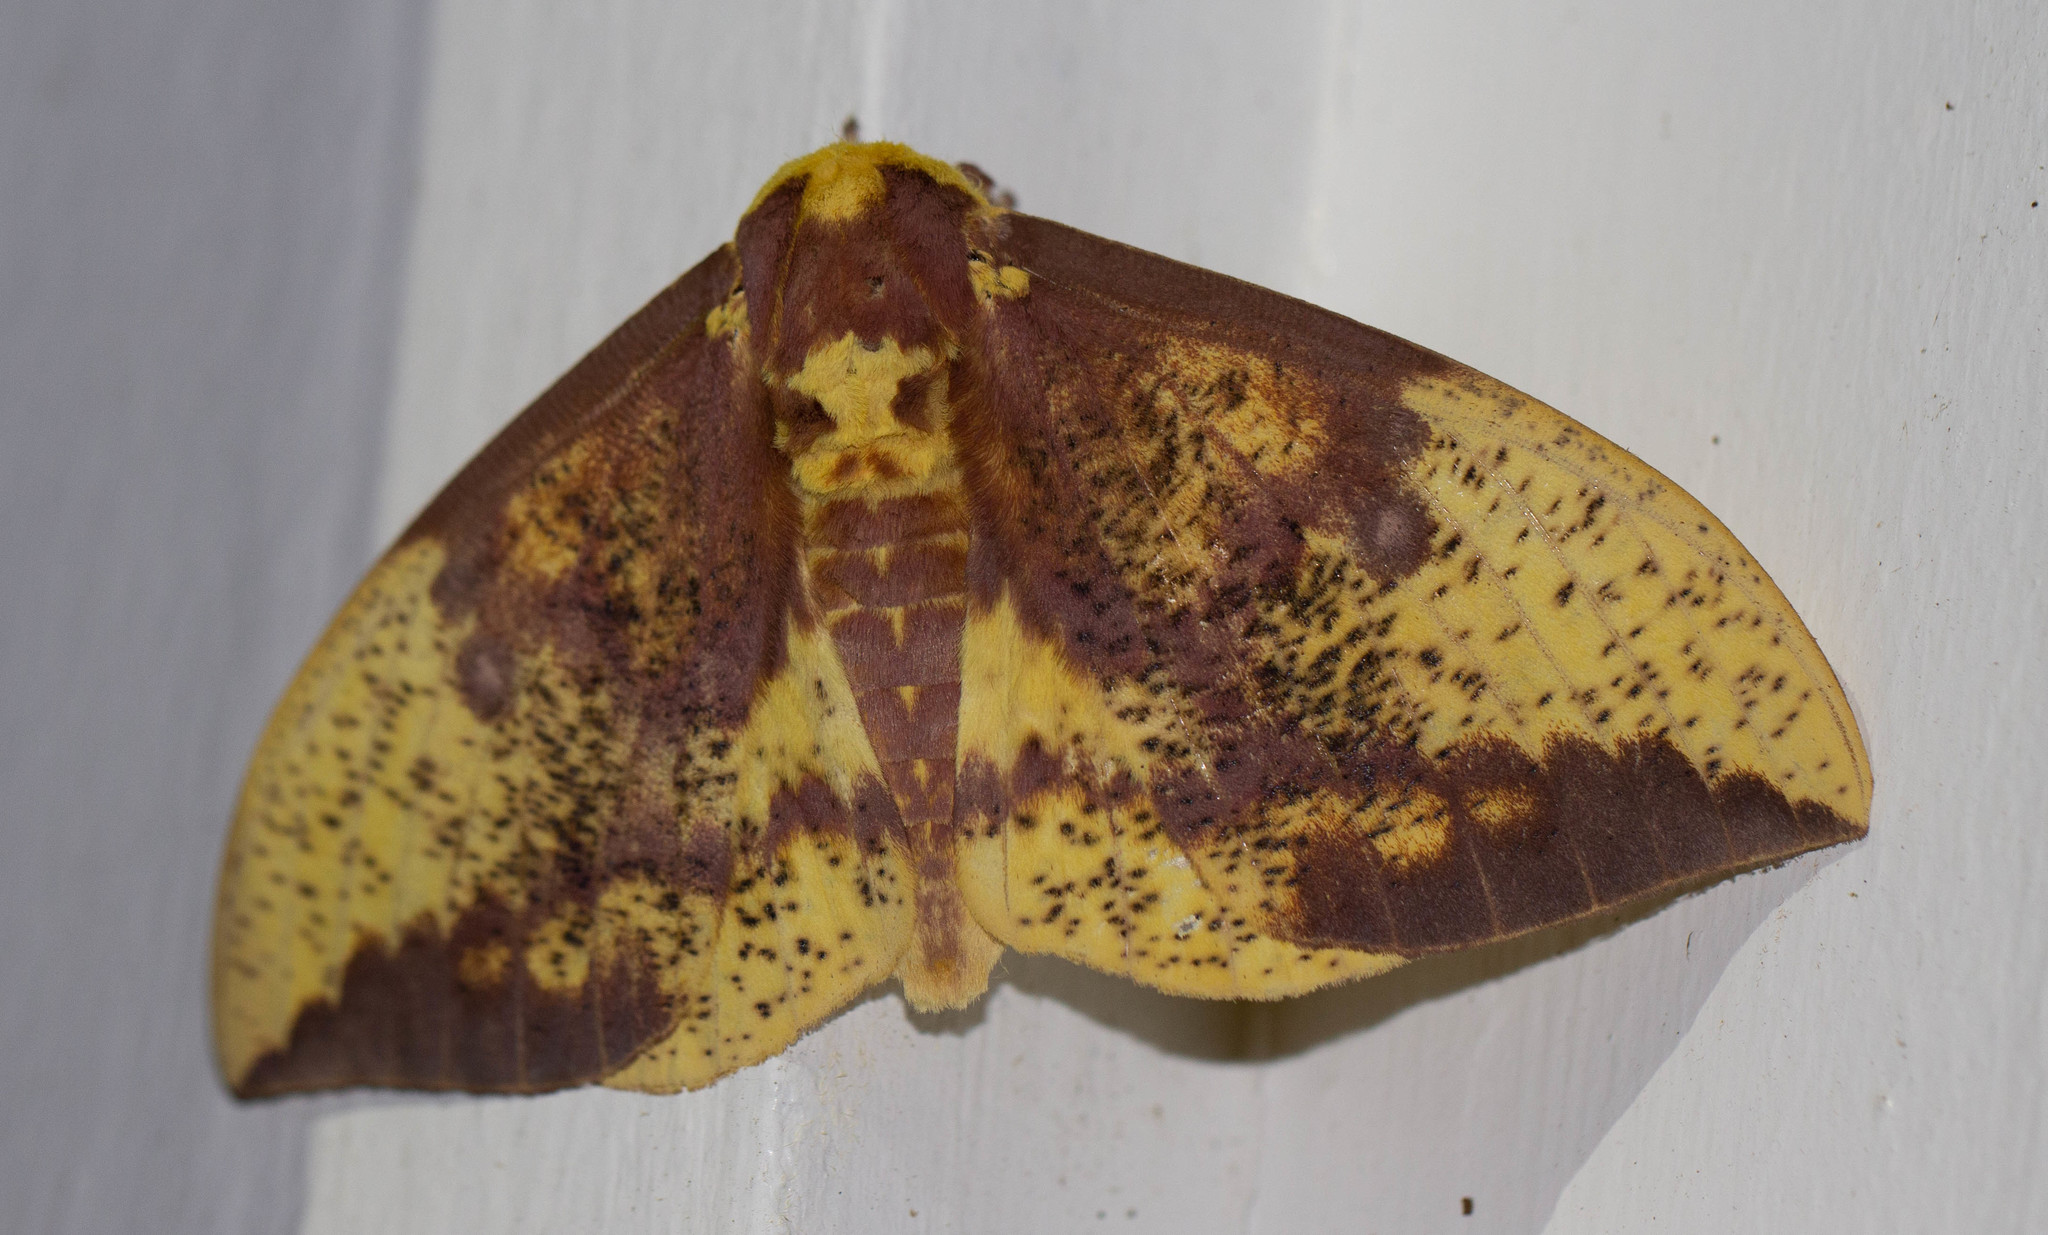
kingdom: Animalia
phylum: Arthropoda
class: Insecta
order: Lepidoptera
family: Saturniidae
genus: Eacles
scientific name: Eacles imperialis
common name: Imperial moth
